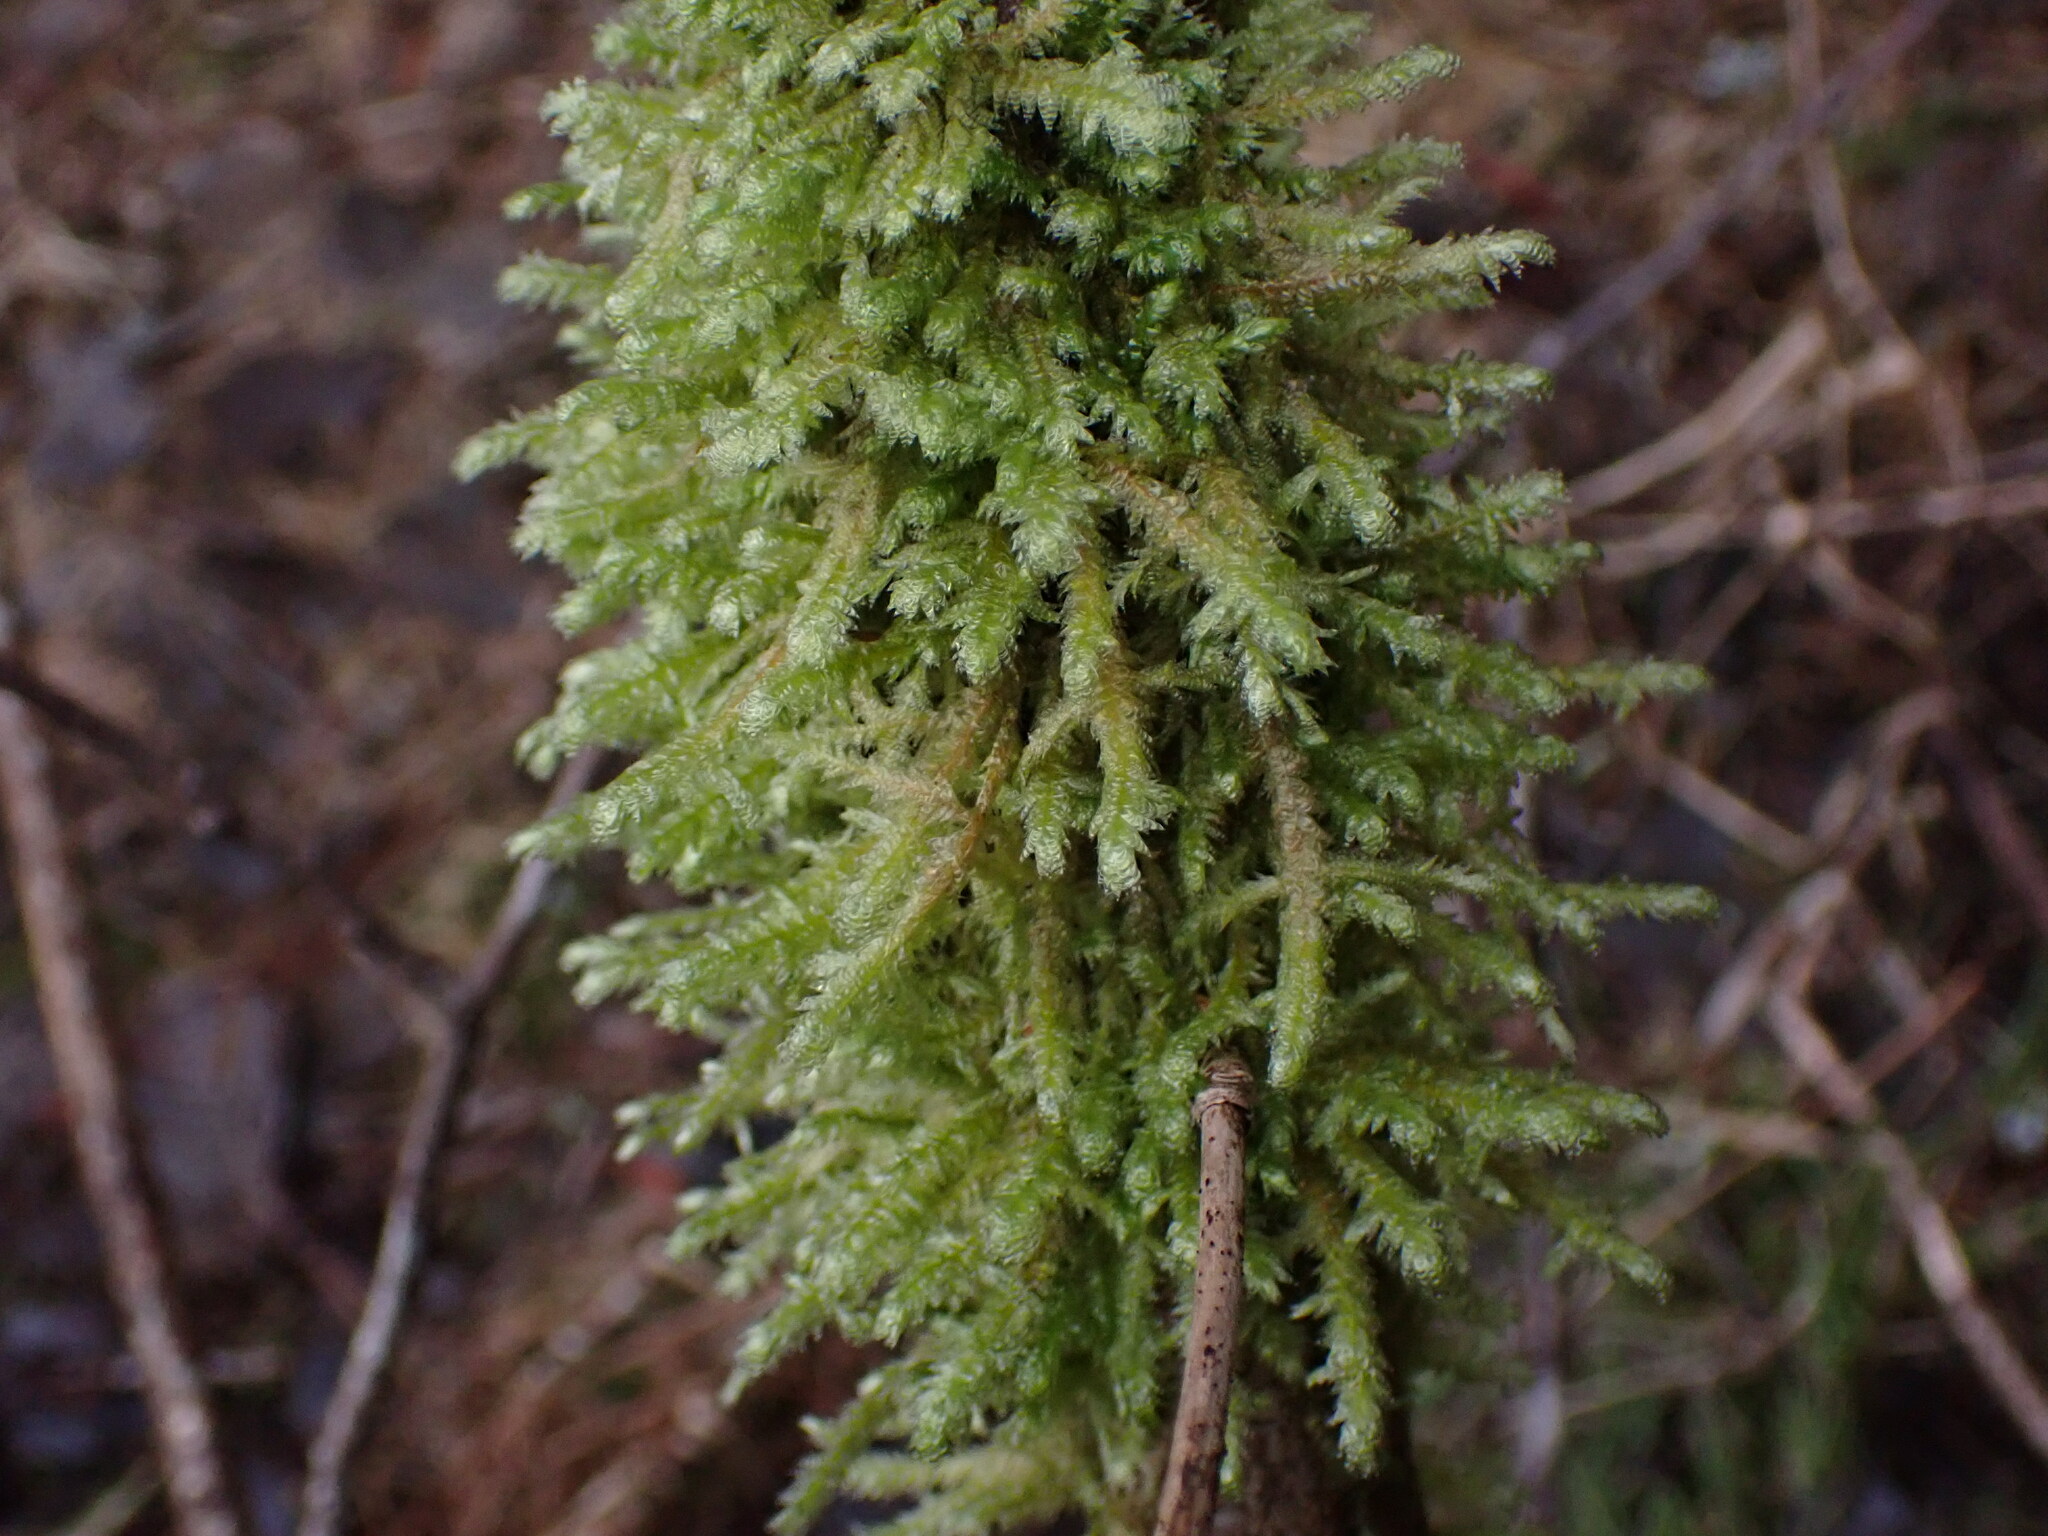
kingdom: Plantae
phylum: Bryophyta
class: Bryopsida
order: Hypnales
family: Neckeraceae
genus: Neckera
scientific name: Neckera douglasii
